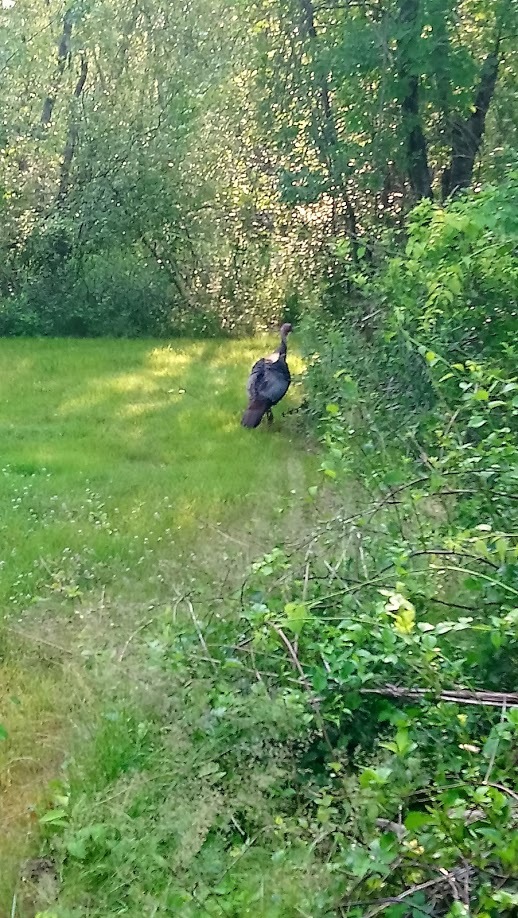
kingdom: Animalia
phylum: Chordata
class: Aves
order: Galliformes
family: Phasianidae
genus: Meleagris
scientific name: Meleagris gallopavo
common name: Wild turkey
